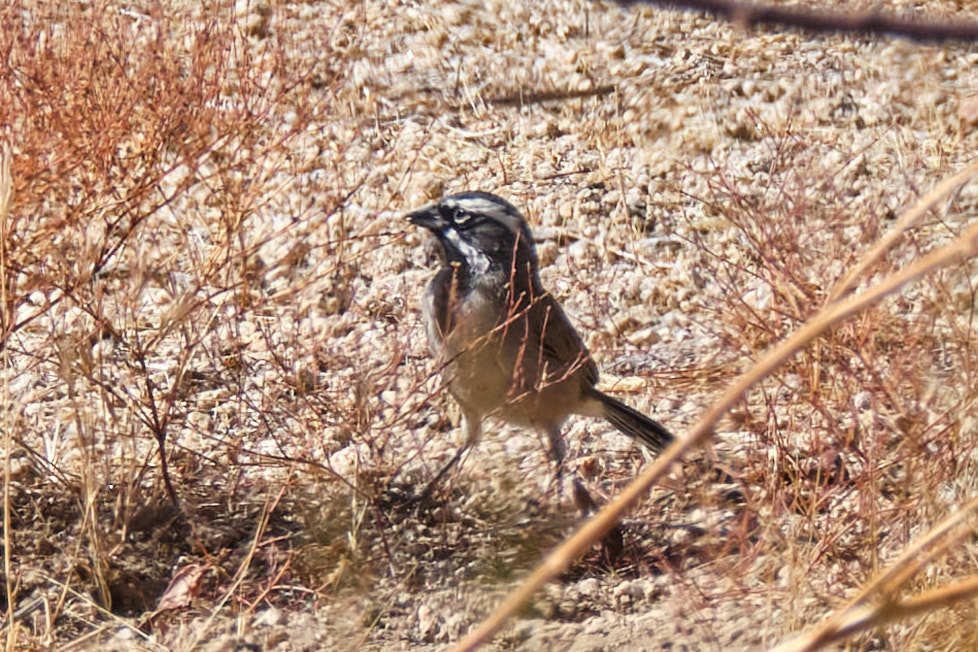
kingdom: Animalia
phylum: Chordata
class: Aves
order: Passeriformes
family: Passerellidae
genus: Amphispiza
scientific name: Amphispiza bilineata
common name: Black-throated sparrow
